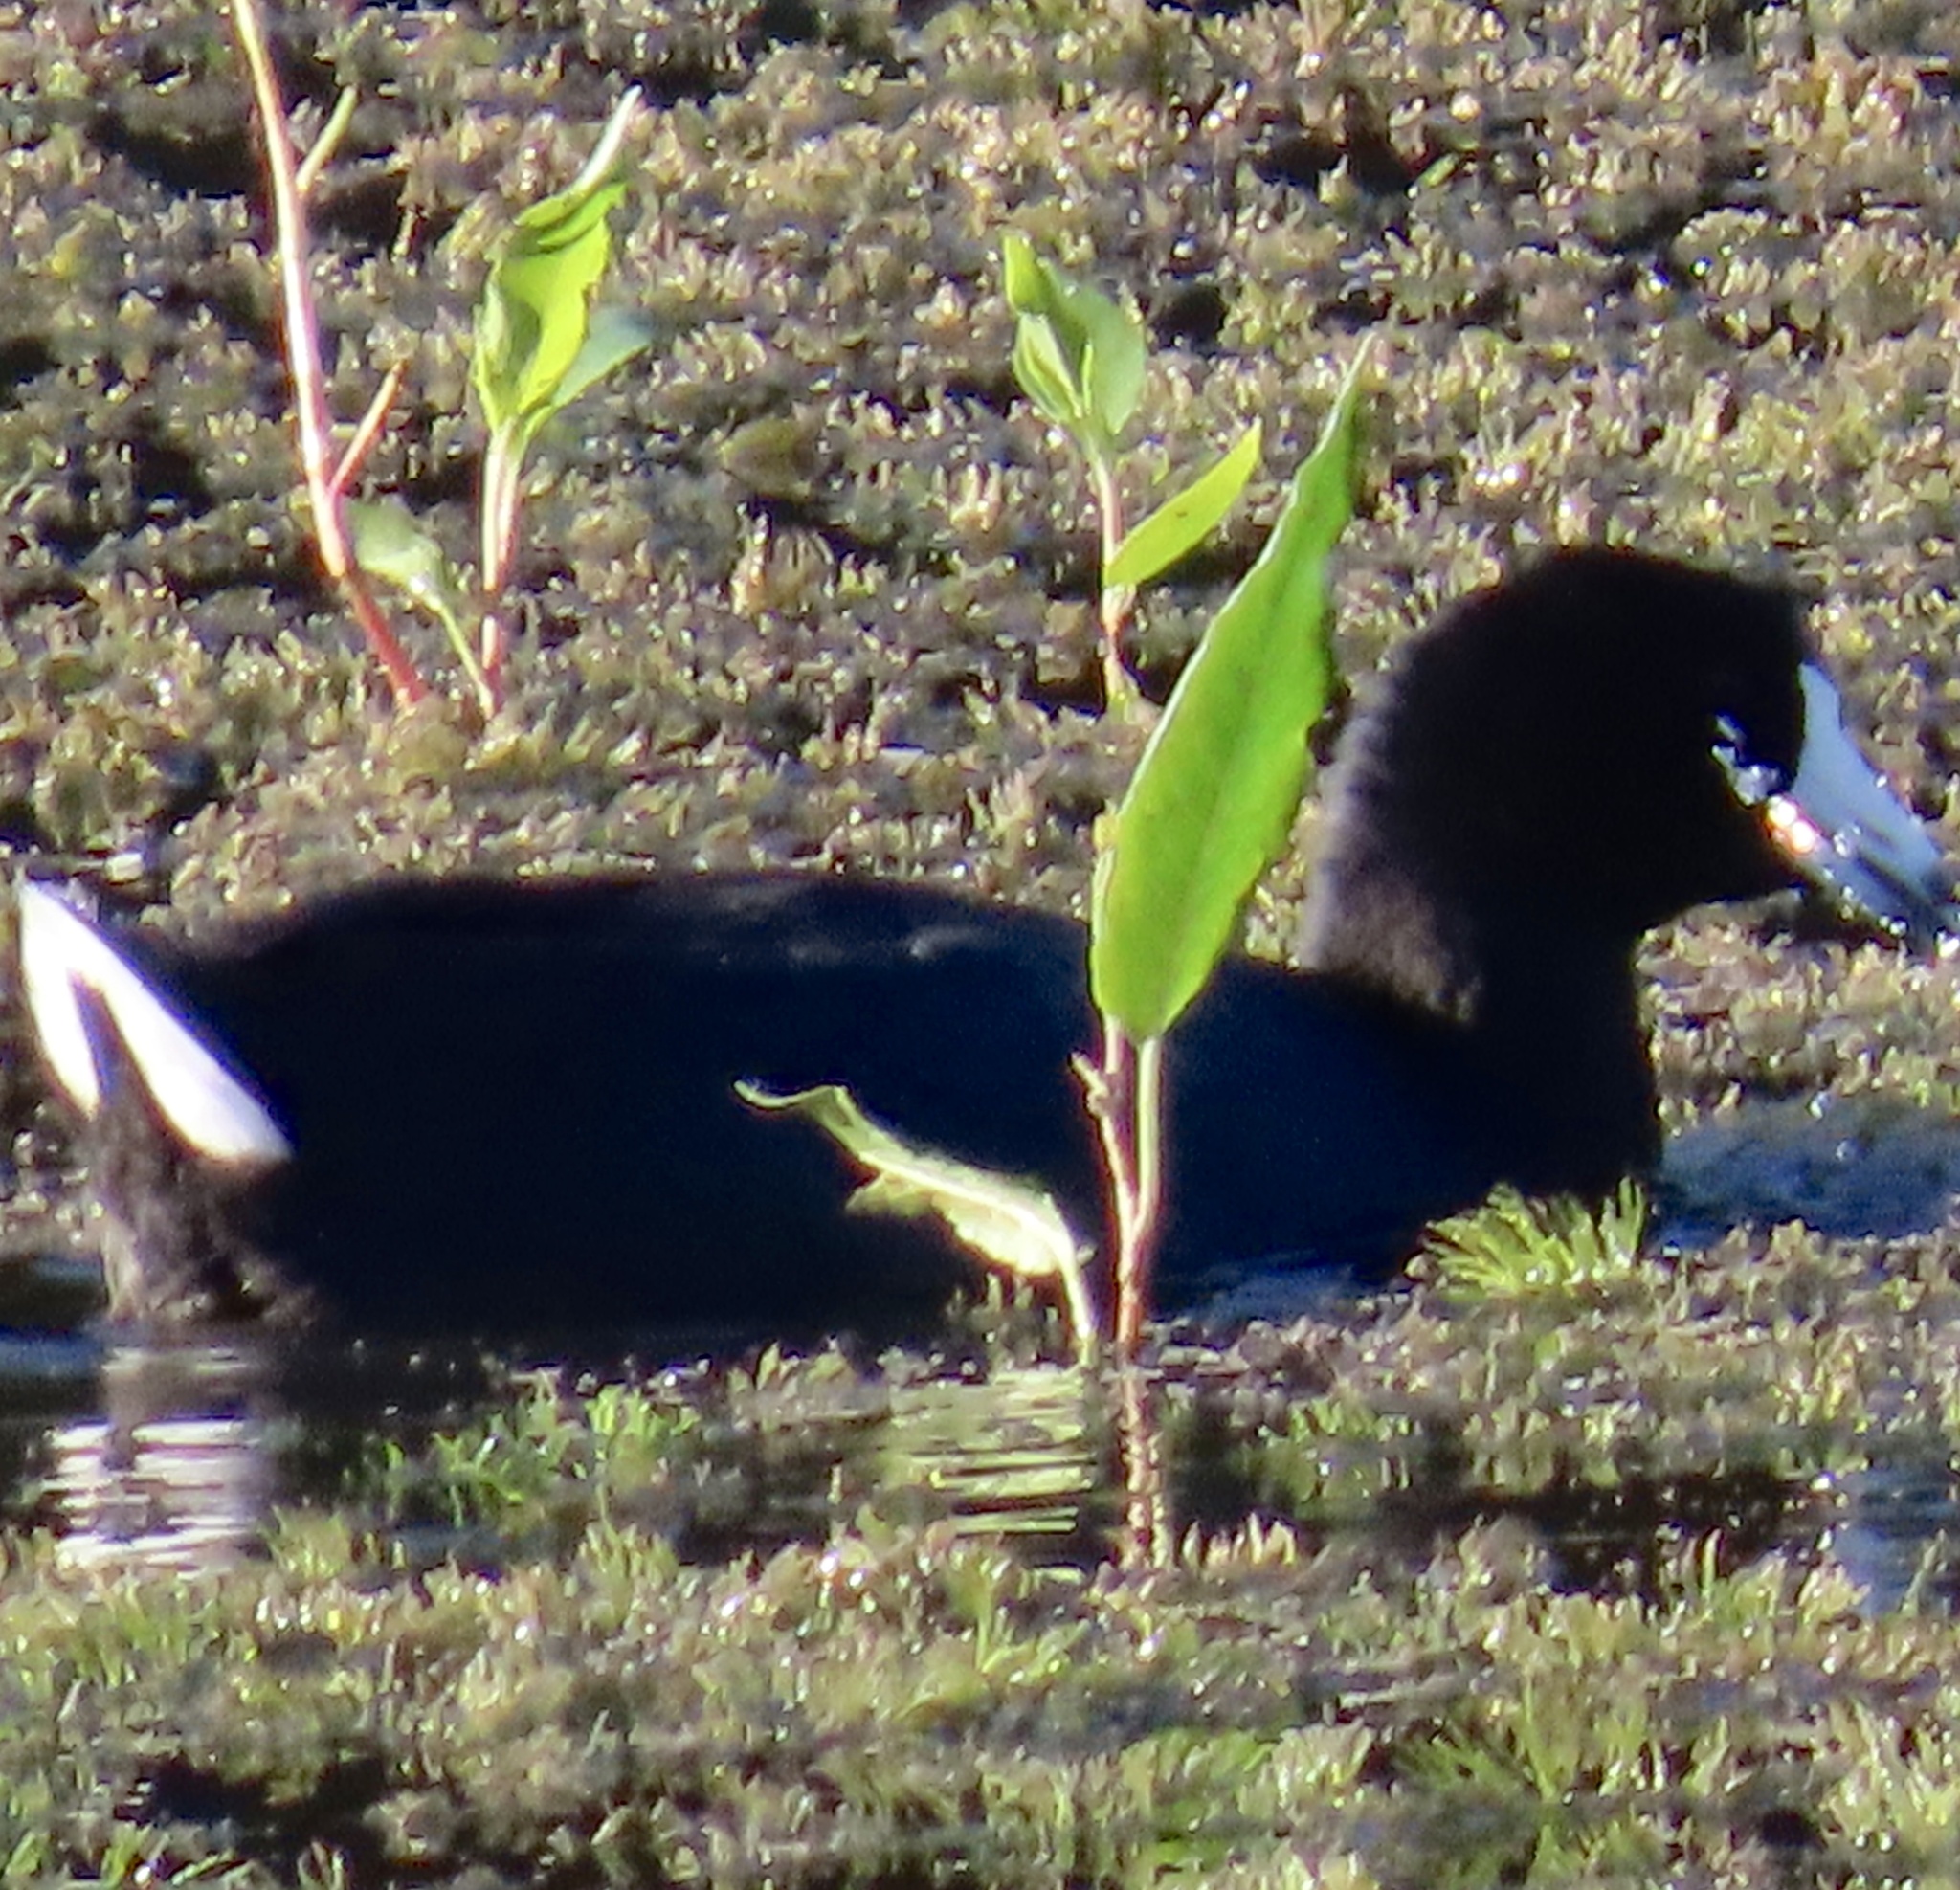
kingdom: Animalia
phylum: Chordata
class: Aves
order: Gruiformes
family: Rallidae
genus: Fulica
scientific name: Fulica americana
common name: American coot
